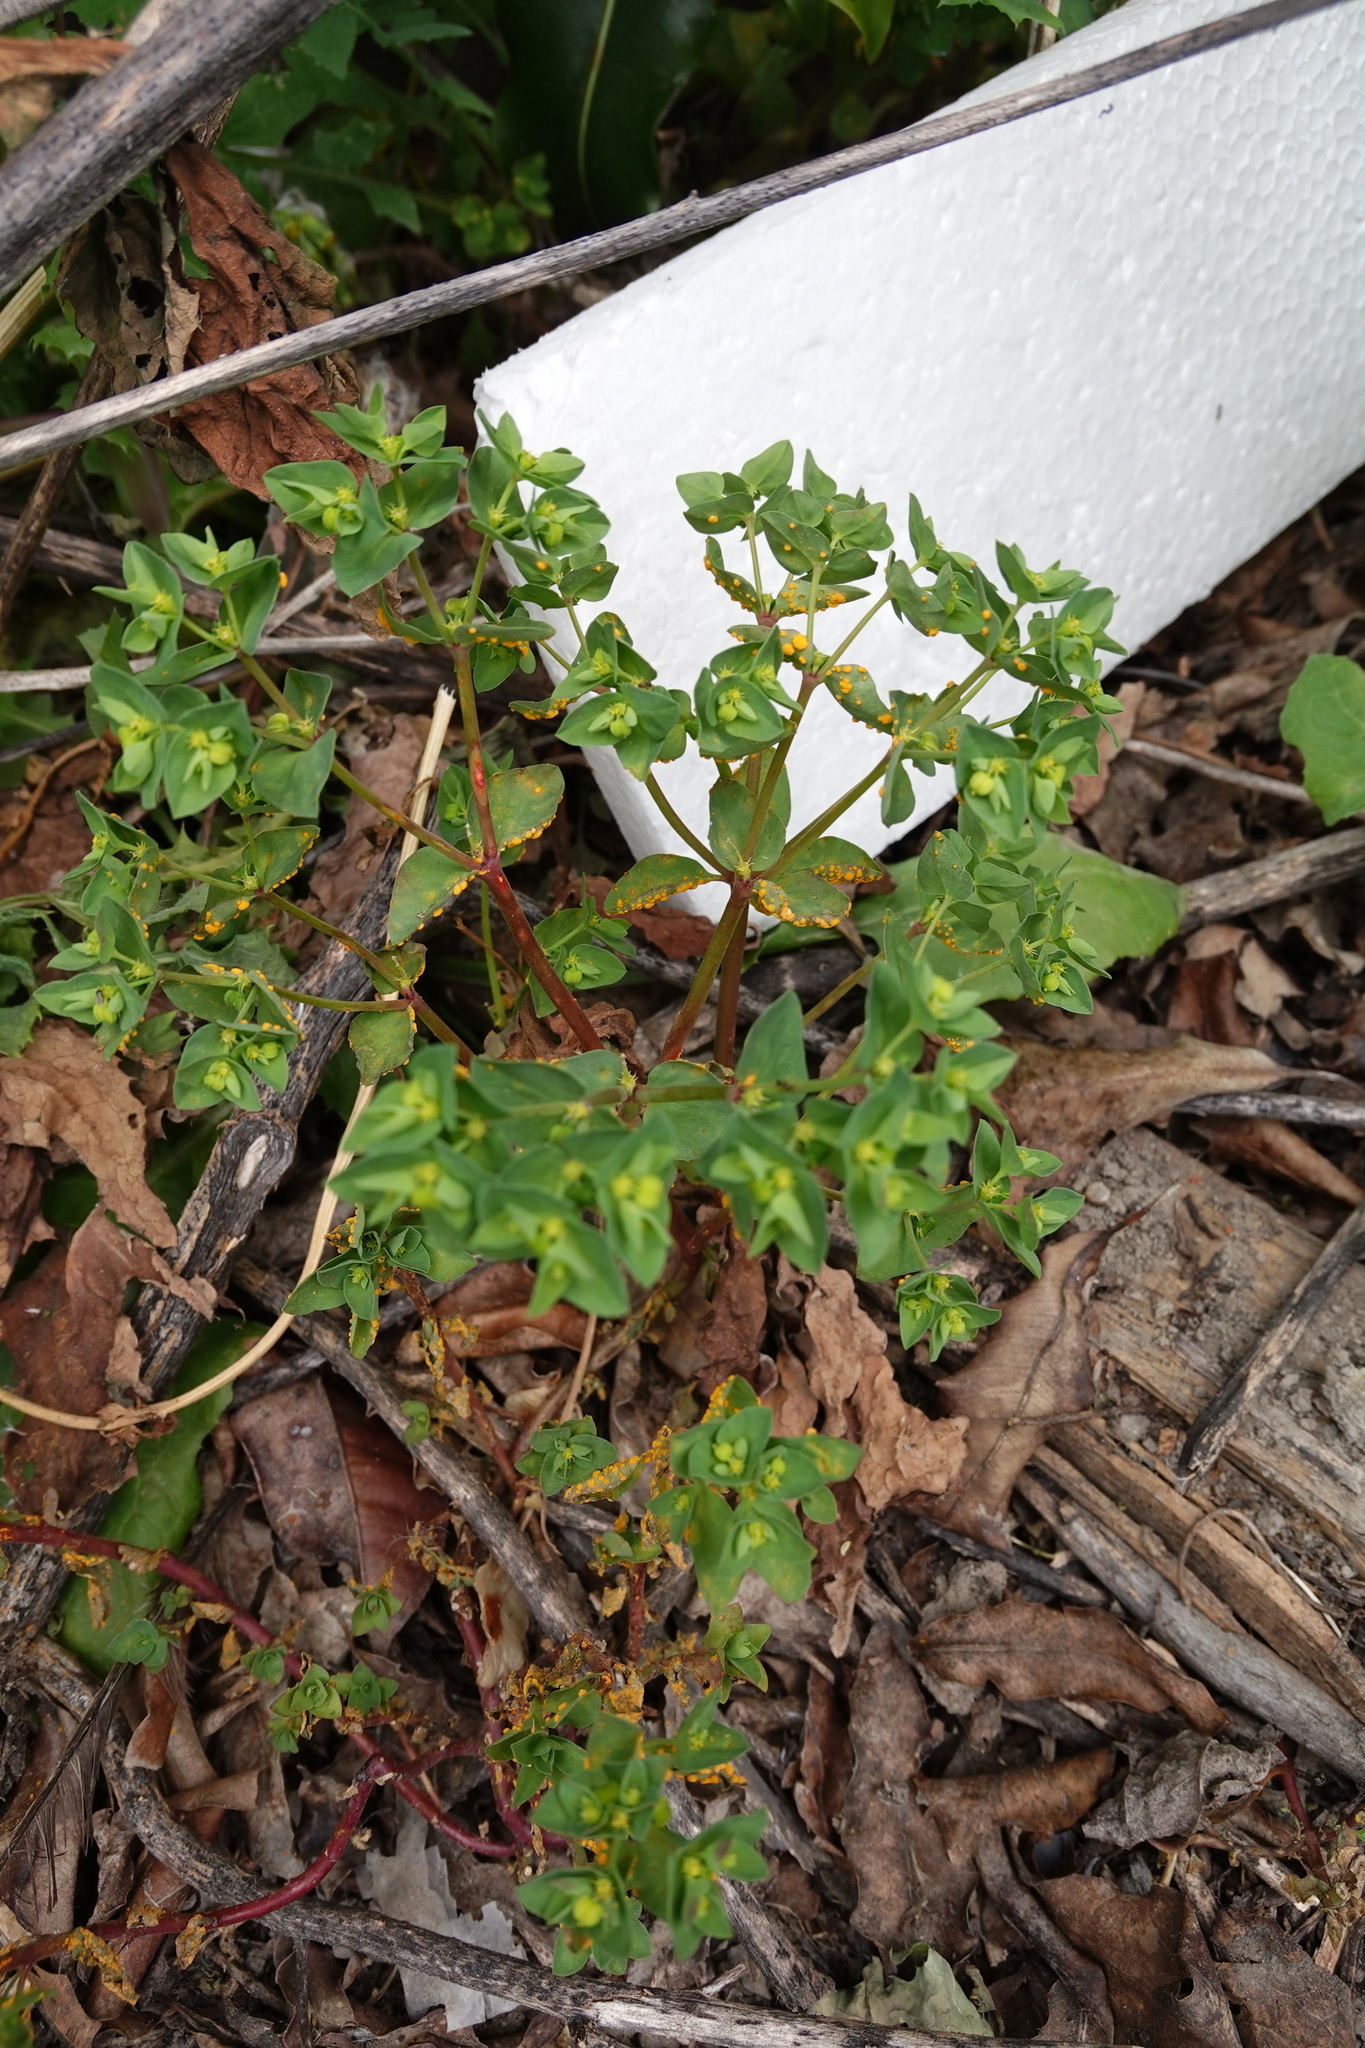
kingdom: Plantae
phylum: Tracheophyta
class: Magnoliopsida
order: Malpighiales
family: Euphorbiaceae
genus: Euphorbia
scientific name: Euphorbia peplus
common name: Petty spurge
